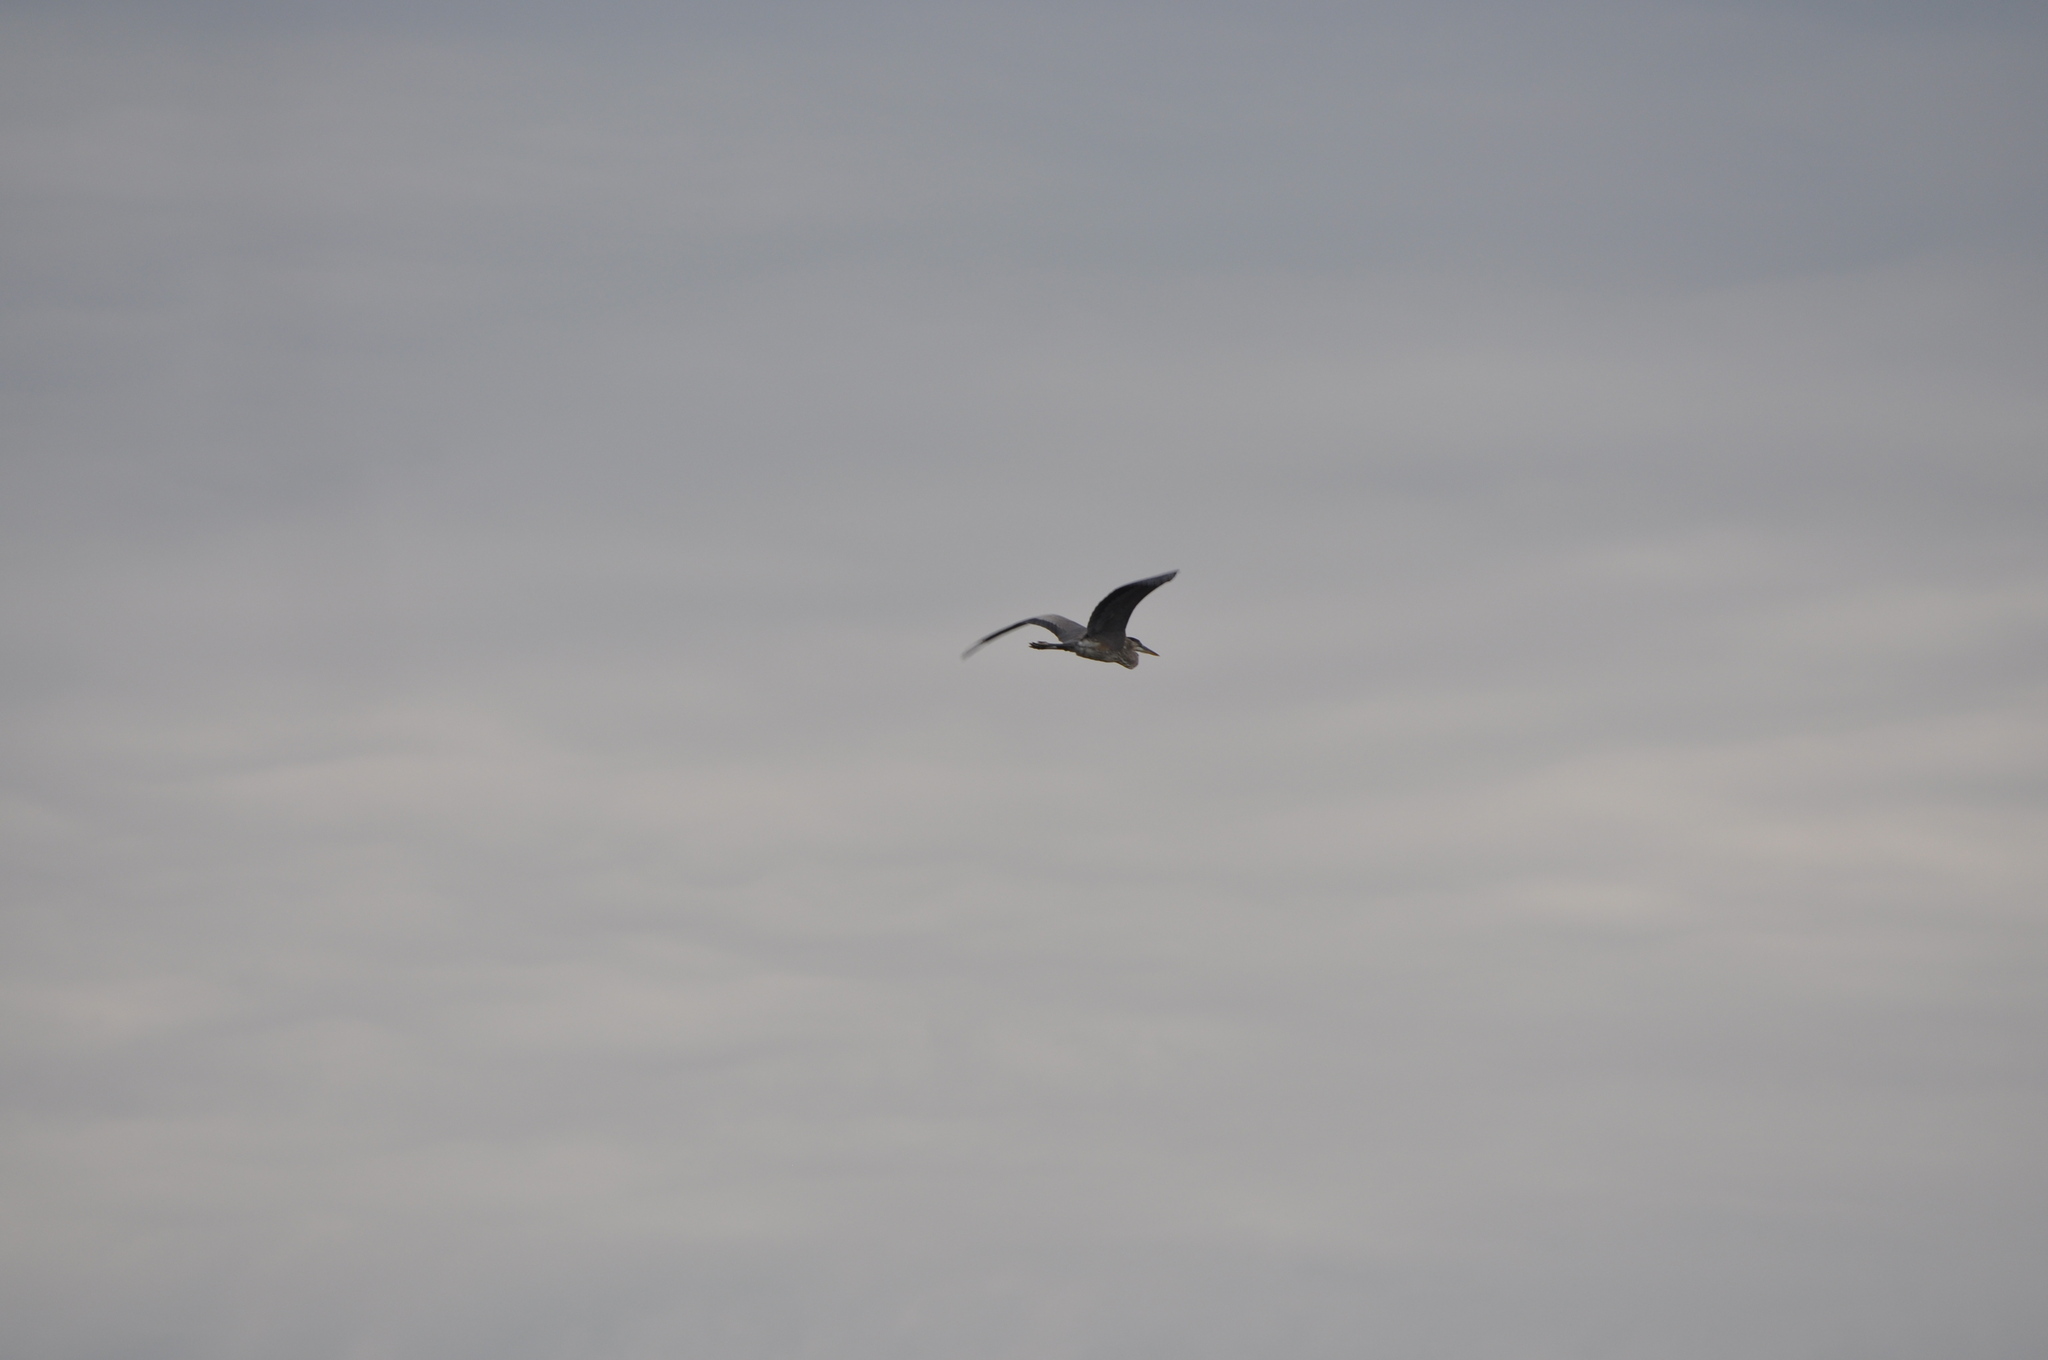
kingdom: Animalia
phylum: Chordata
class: Aves
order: Pelecaniformes
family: Ardeidae
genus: Ardea
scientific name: Ardea herodias
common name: Great blue heron
